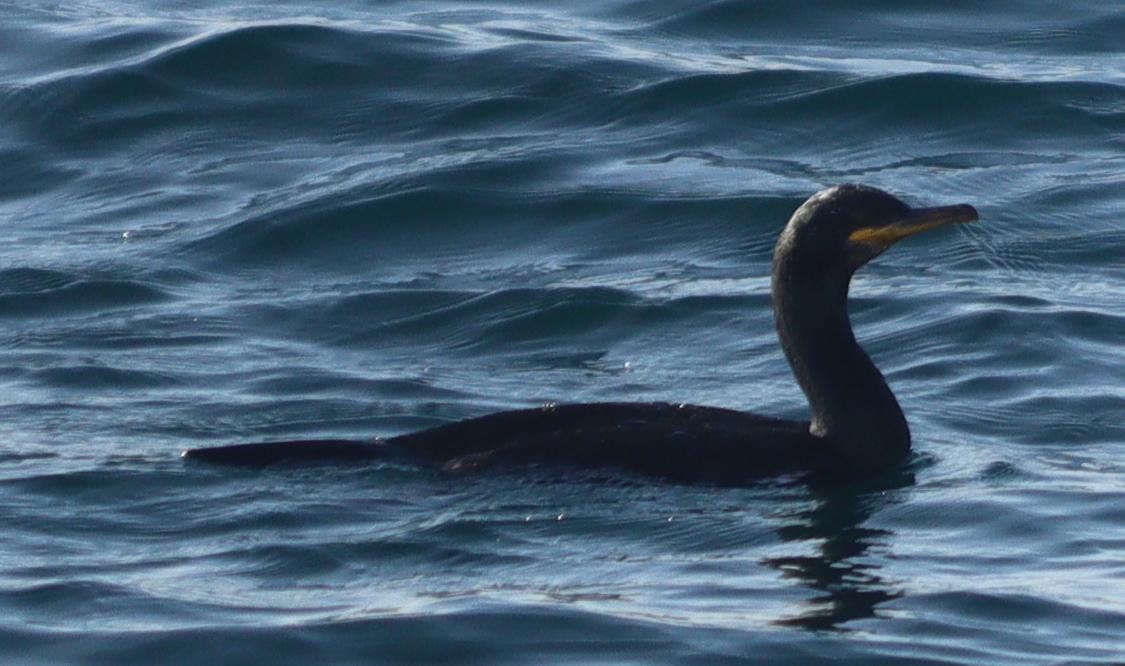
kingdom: Animalia
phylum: Chordata
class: Aves
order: Suliformes
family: Phalacrocoracidae
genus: Phalacrocorax
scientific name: Phalacrocorax aristotelis
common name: European shag
